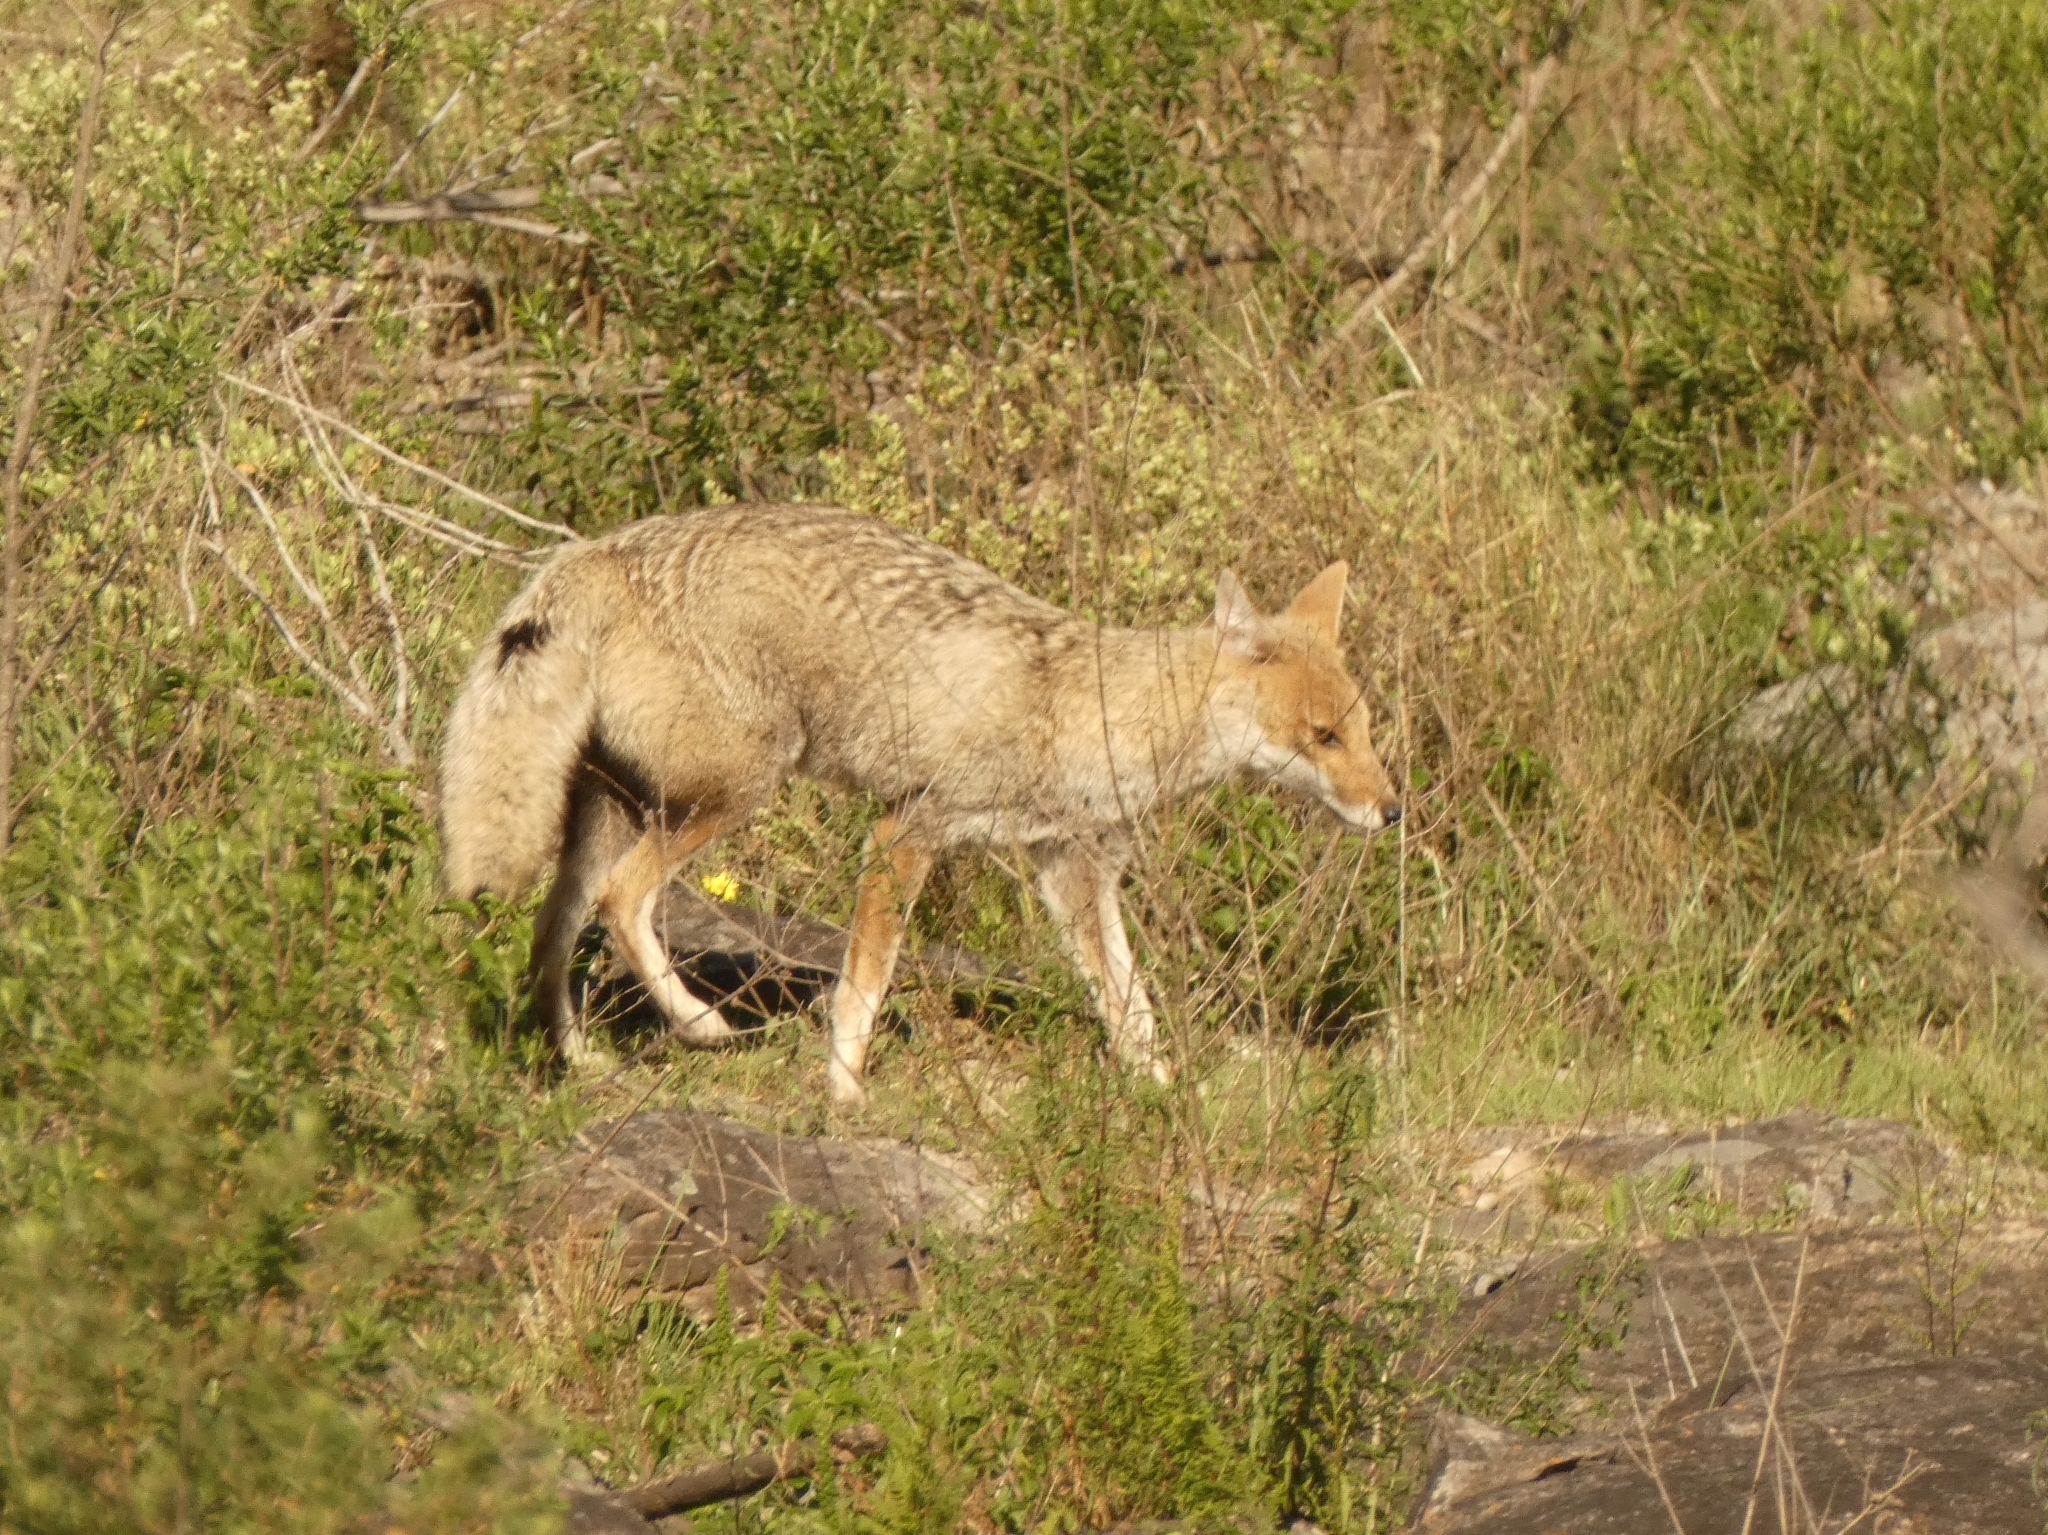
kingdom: Animalia
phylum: Chordata
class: Mammalia
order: Carnivora
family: Canidae
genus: Lycalopex
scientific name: Lycalopex gymnocercus
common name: Pampas fox
